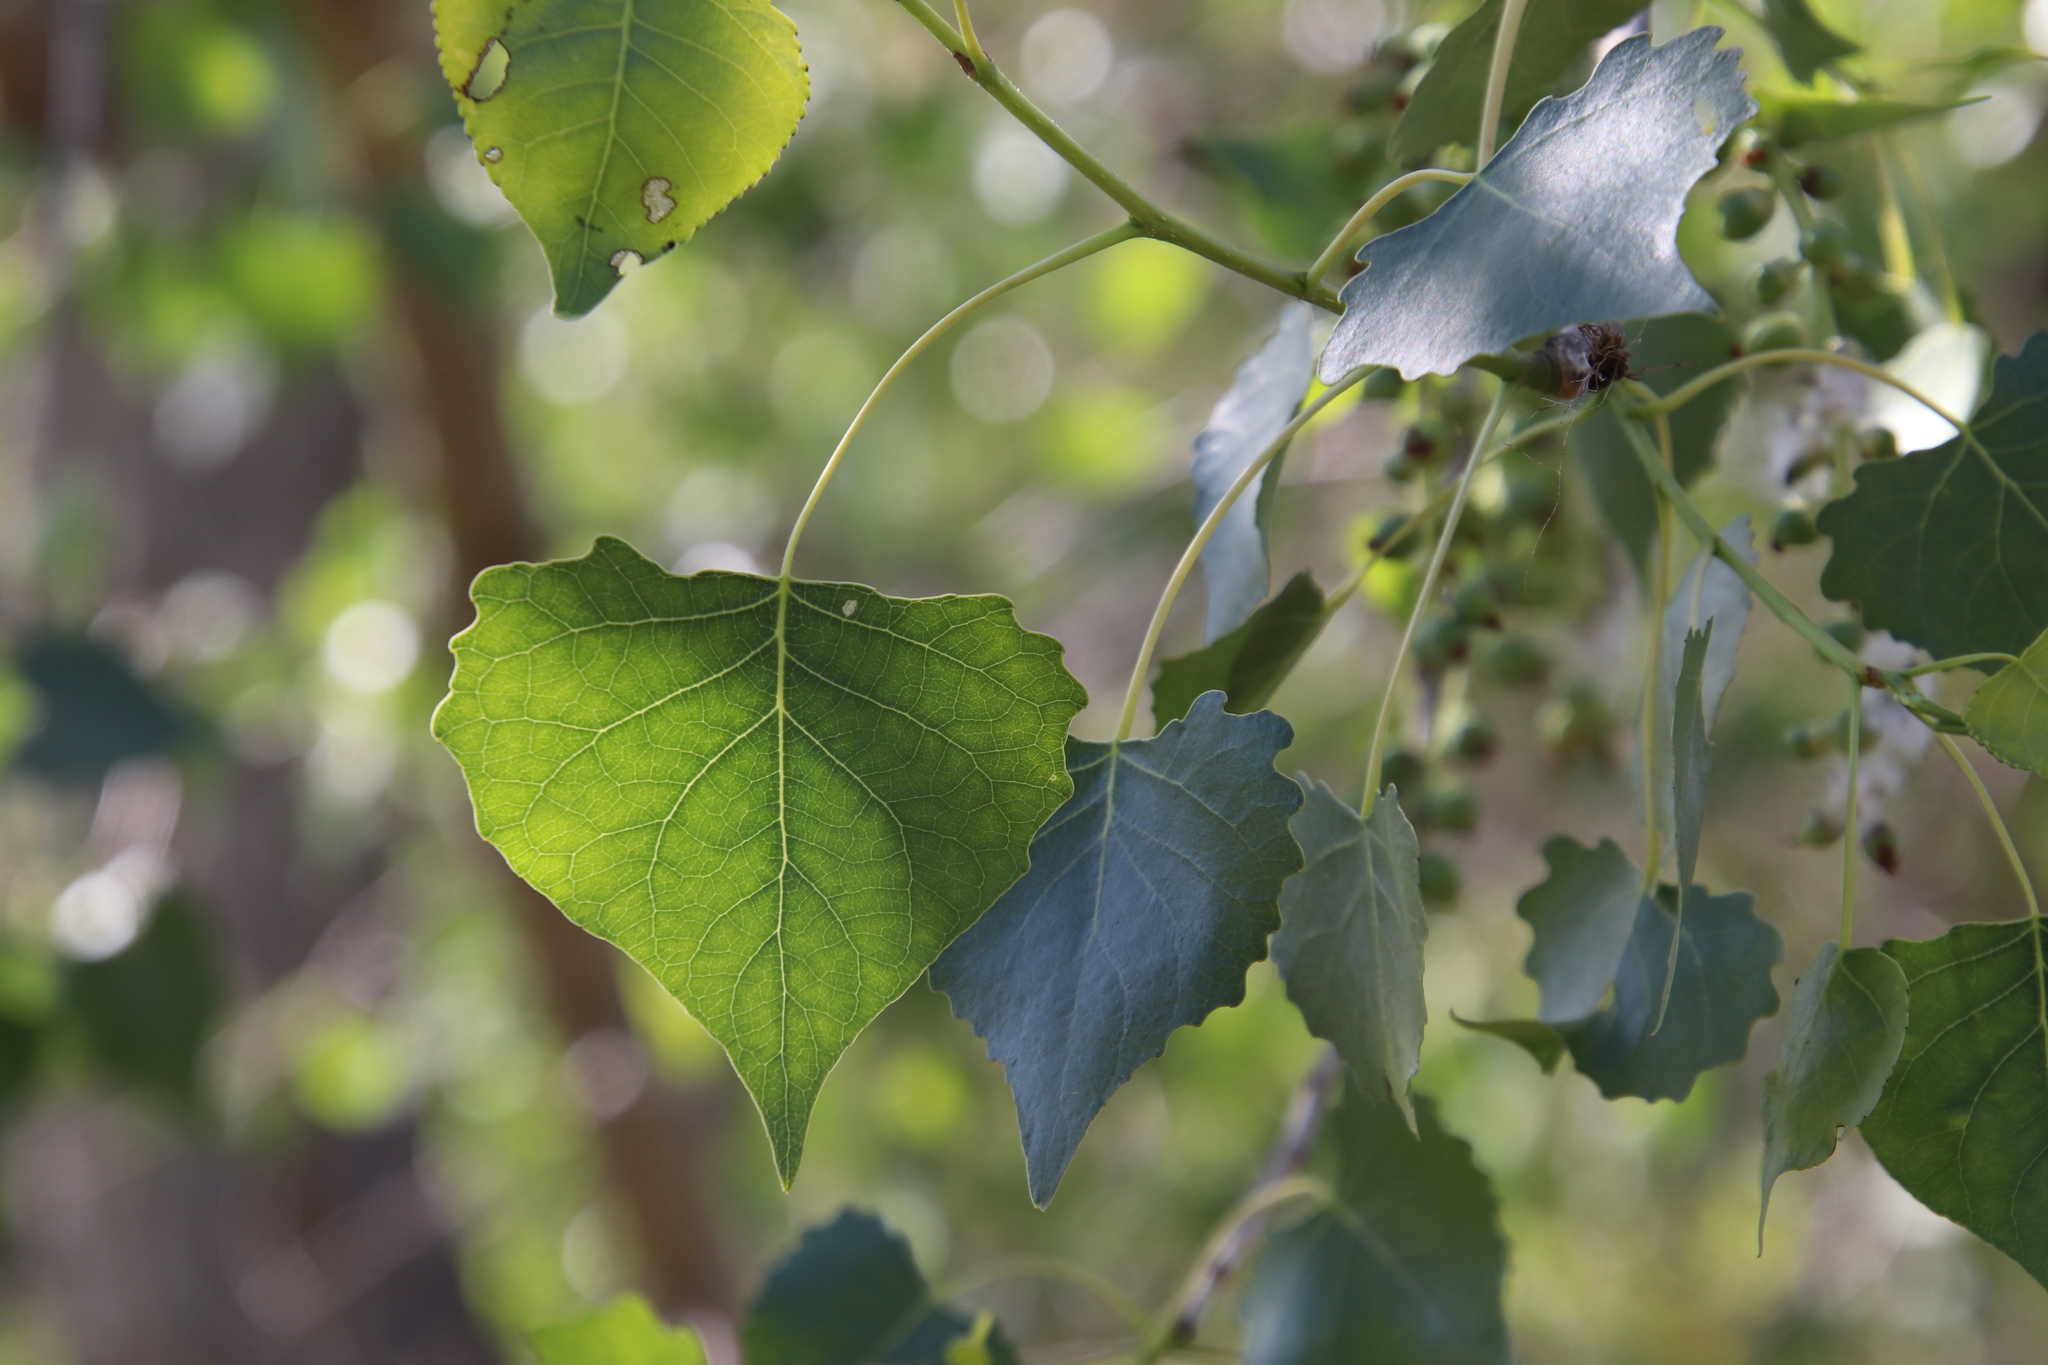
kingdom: Plantae
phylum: Tracheophyta
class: Magnoliopsida
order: Malpighiales
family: Salicaceae
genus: Populus
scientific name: Populus fremontii
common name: Fremont's cottonwood
